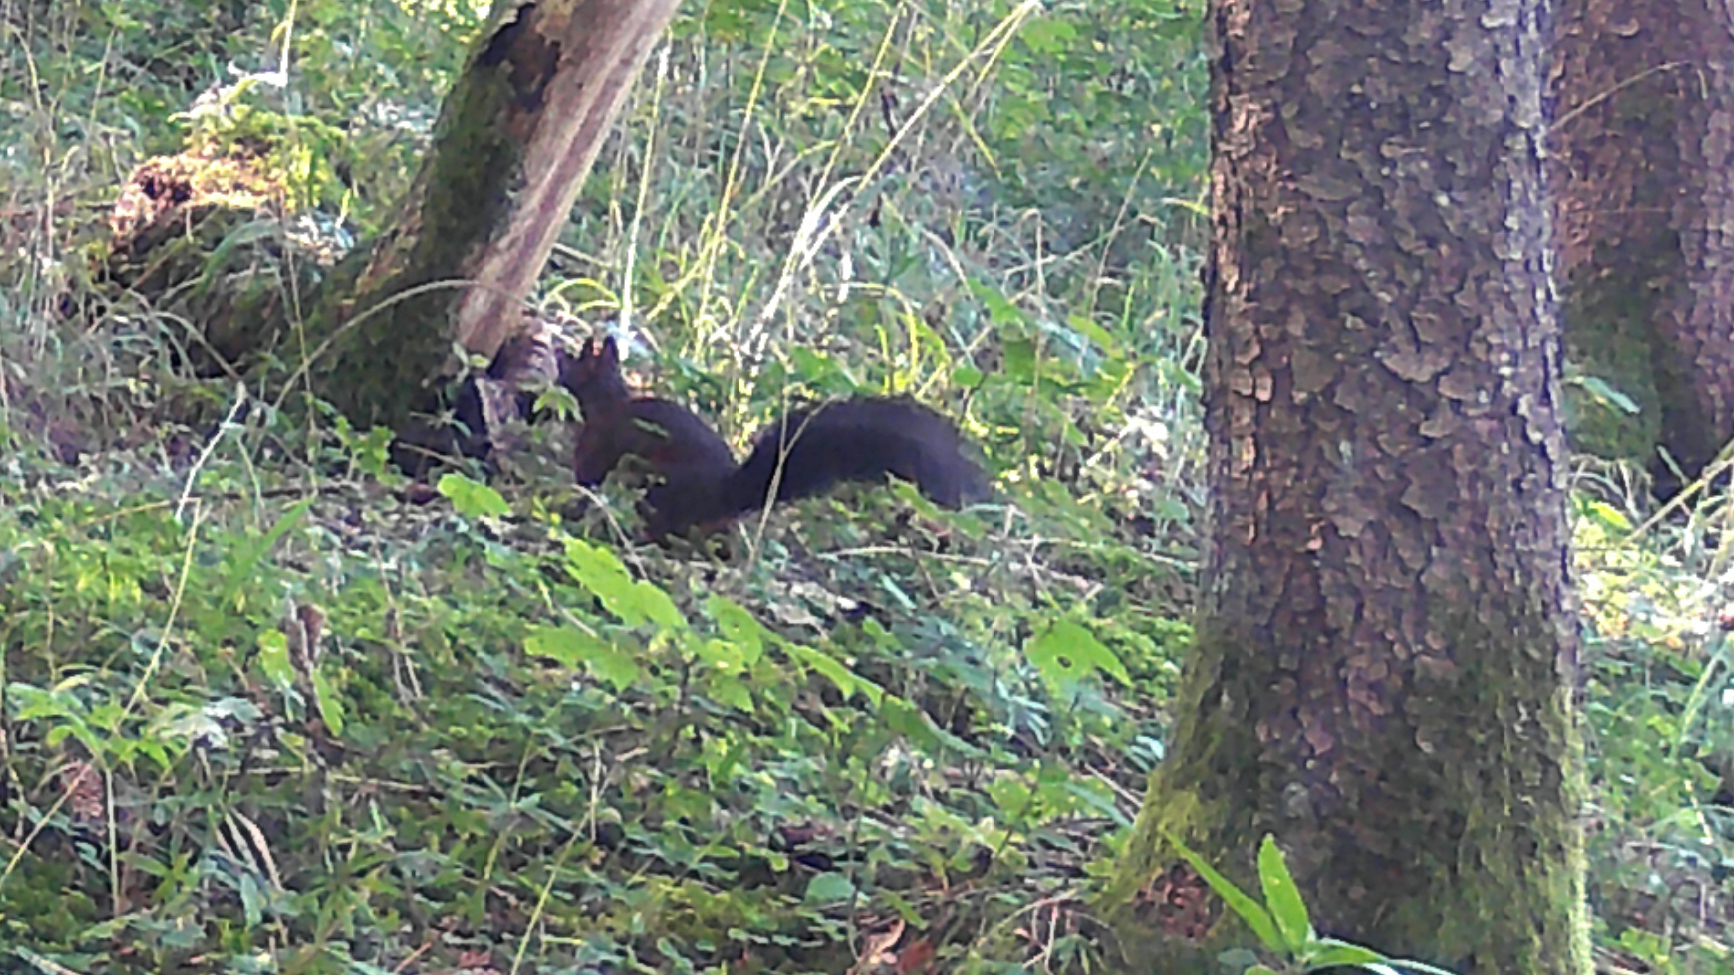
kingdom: Animalia
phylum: Chordata
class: Mammalia
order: Rodentia
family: Sciuridae
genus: Sciurus
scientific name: Sciurus vulgaris
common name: Eurasian red squirrel
